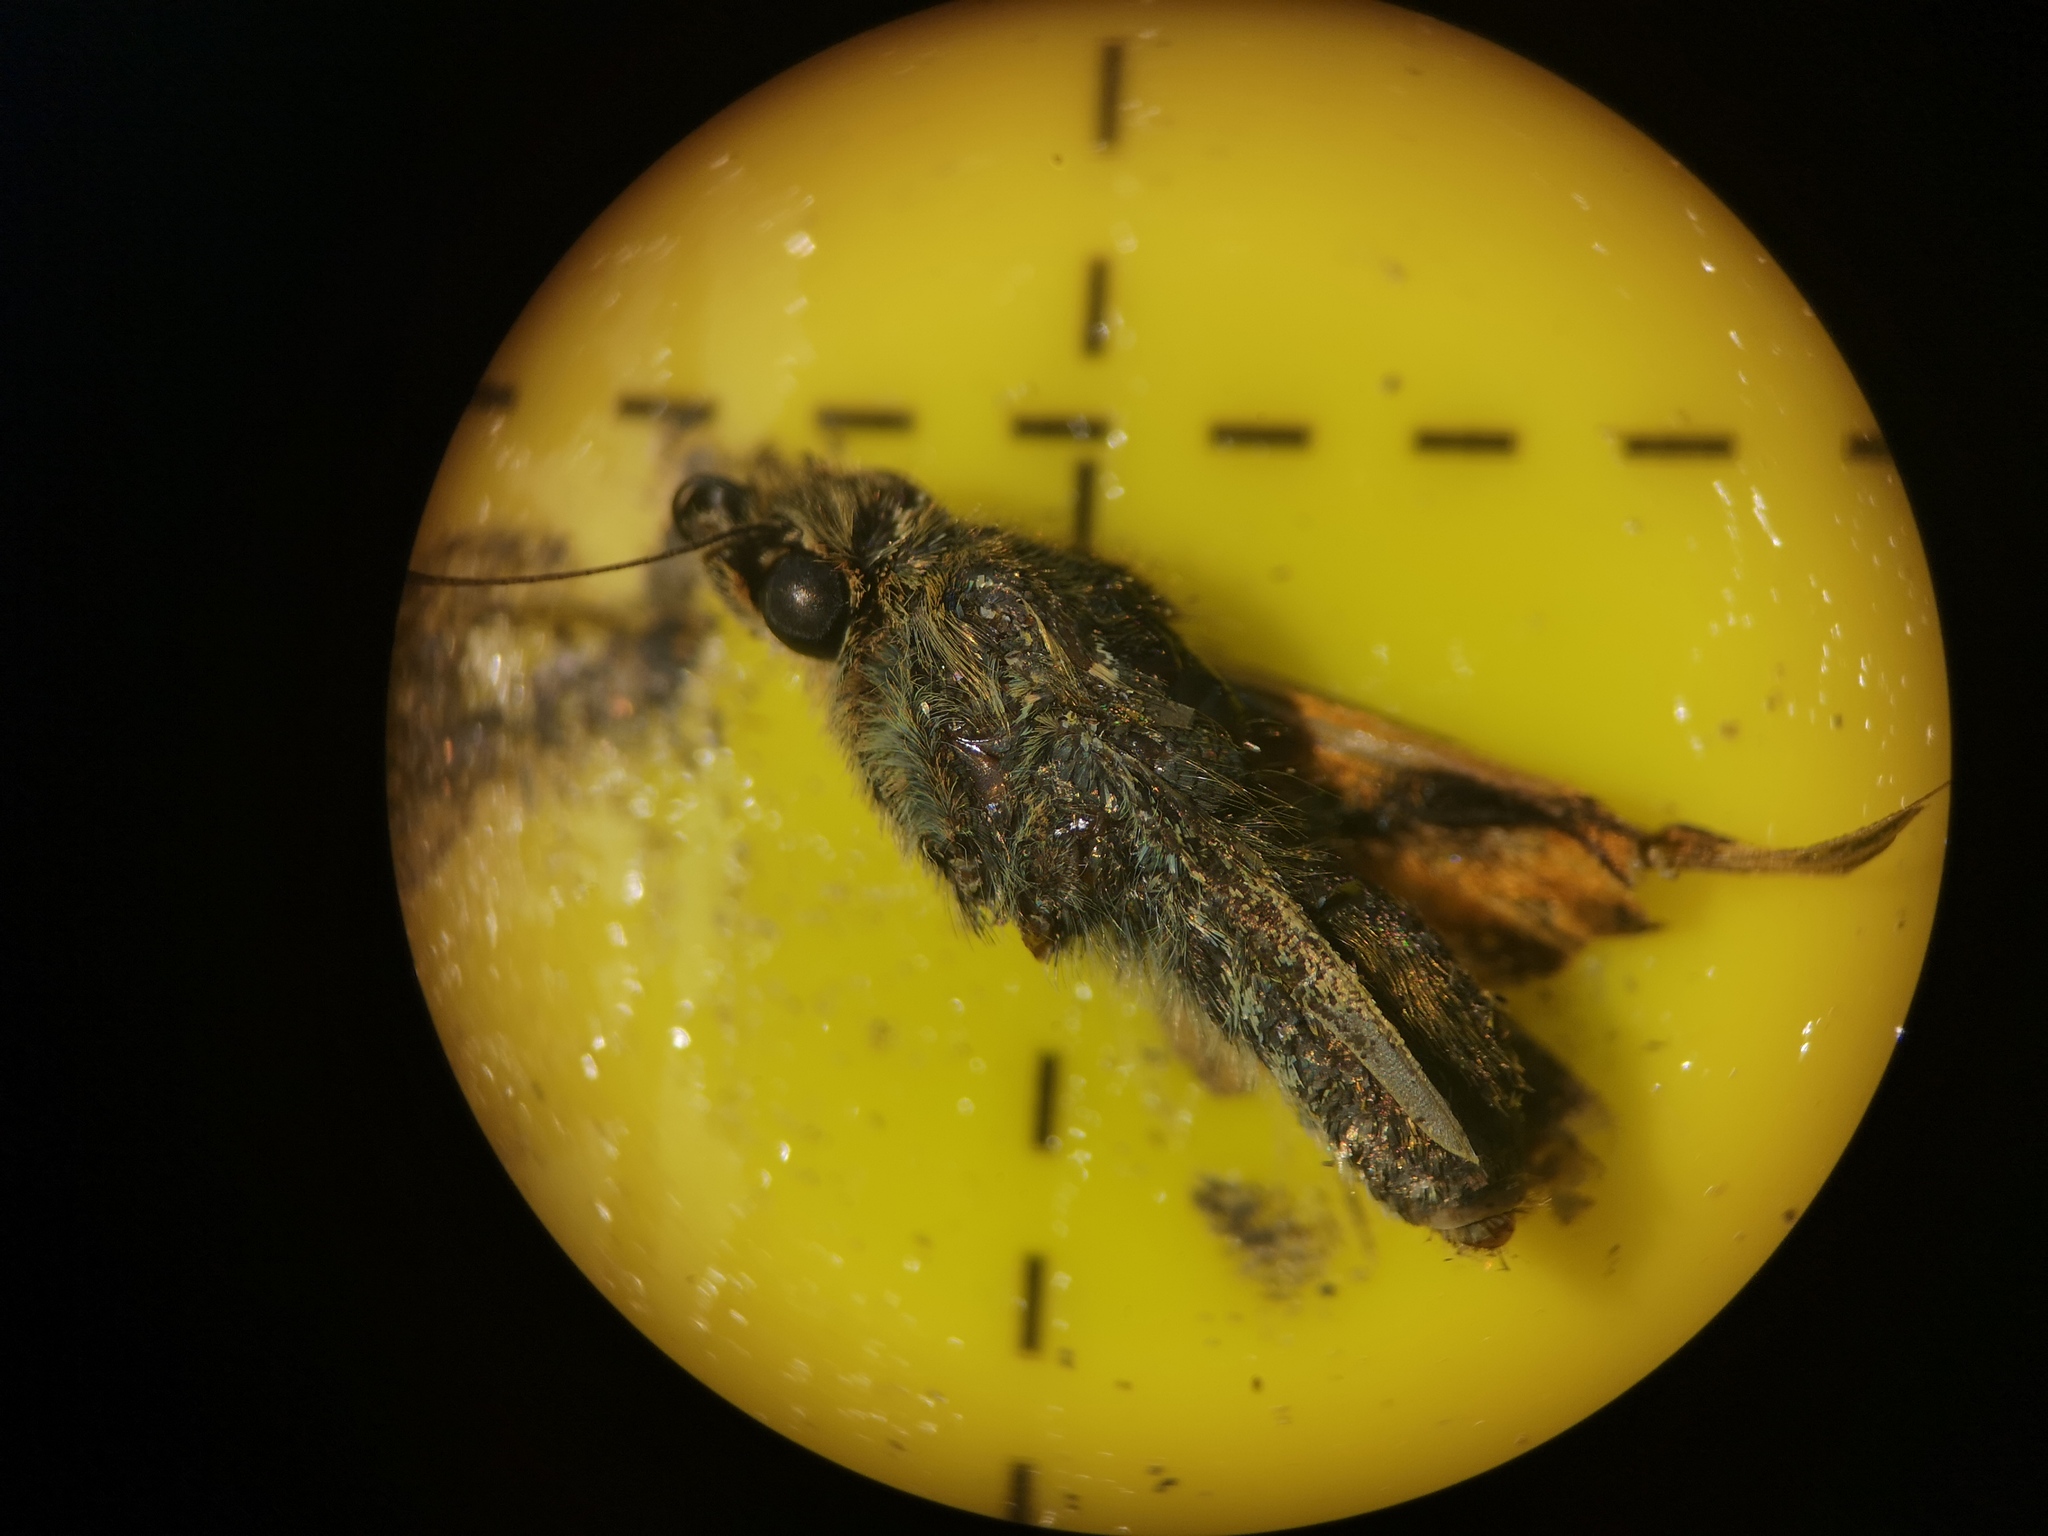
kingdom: Animalia
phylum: Arthropoda
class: Insecta
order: Lepidoptera
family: Hesperiidae
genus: Ochlodes
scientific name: Ochlodes venata
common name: Large skipper
